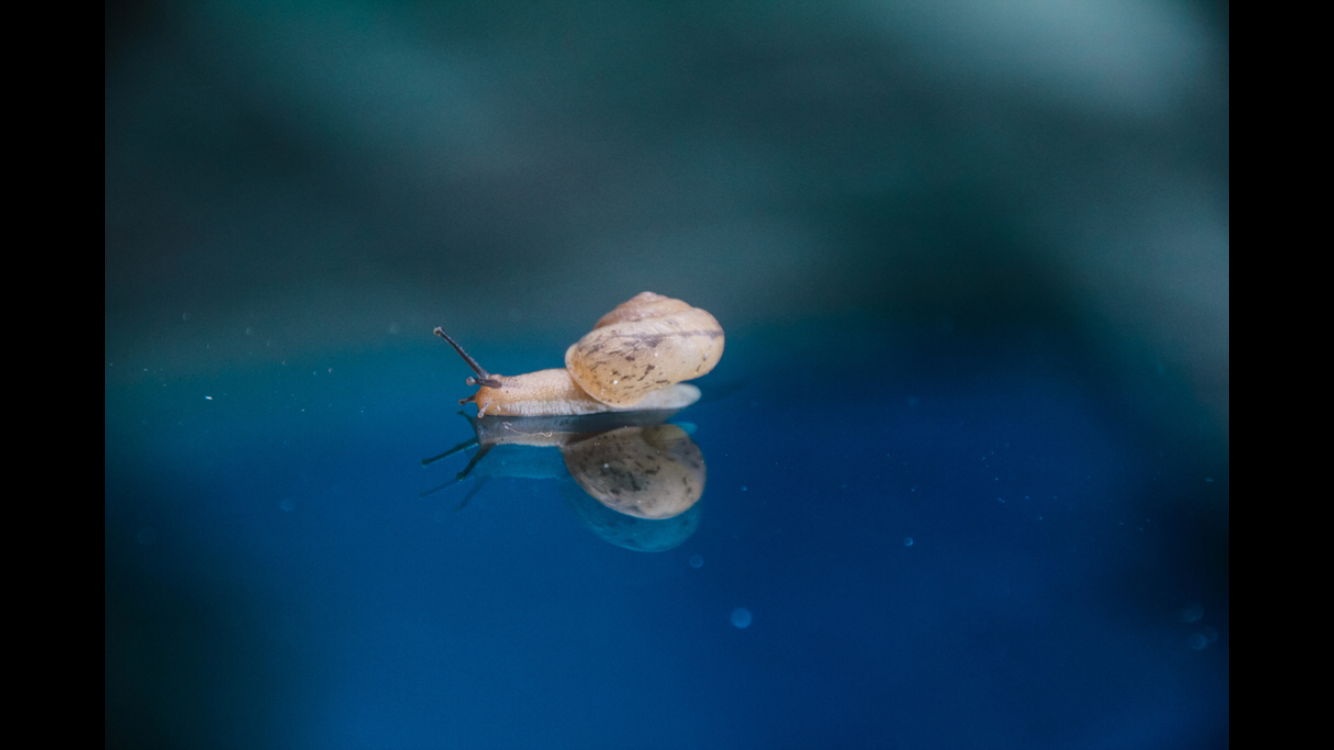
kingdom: Animalia
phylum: Mollusca
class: Gastropoda
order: Stylommatophora
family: Camaenidae
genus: Bradybaena
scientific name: Bradybaena similaris
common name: Asian trampsnail
